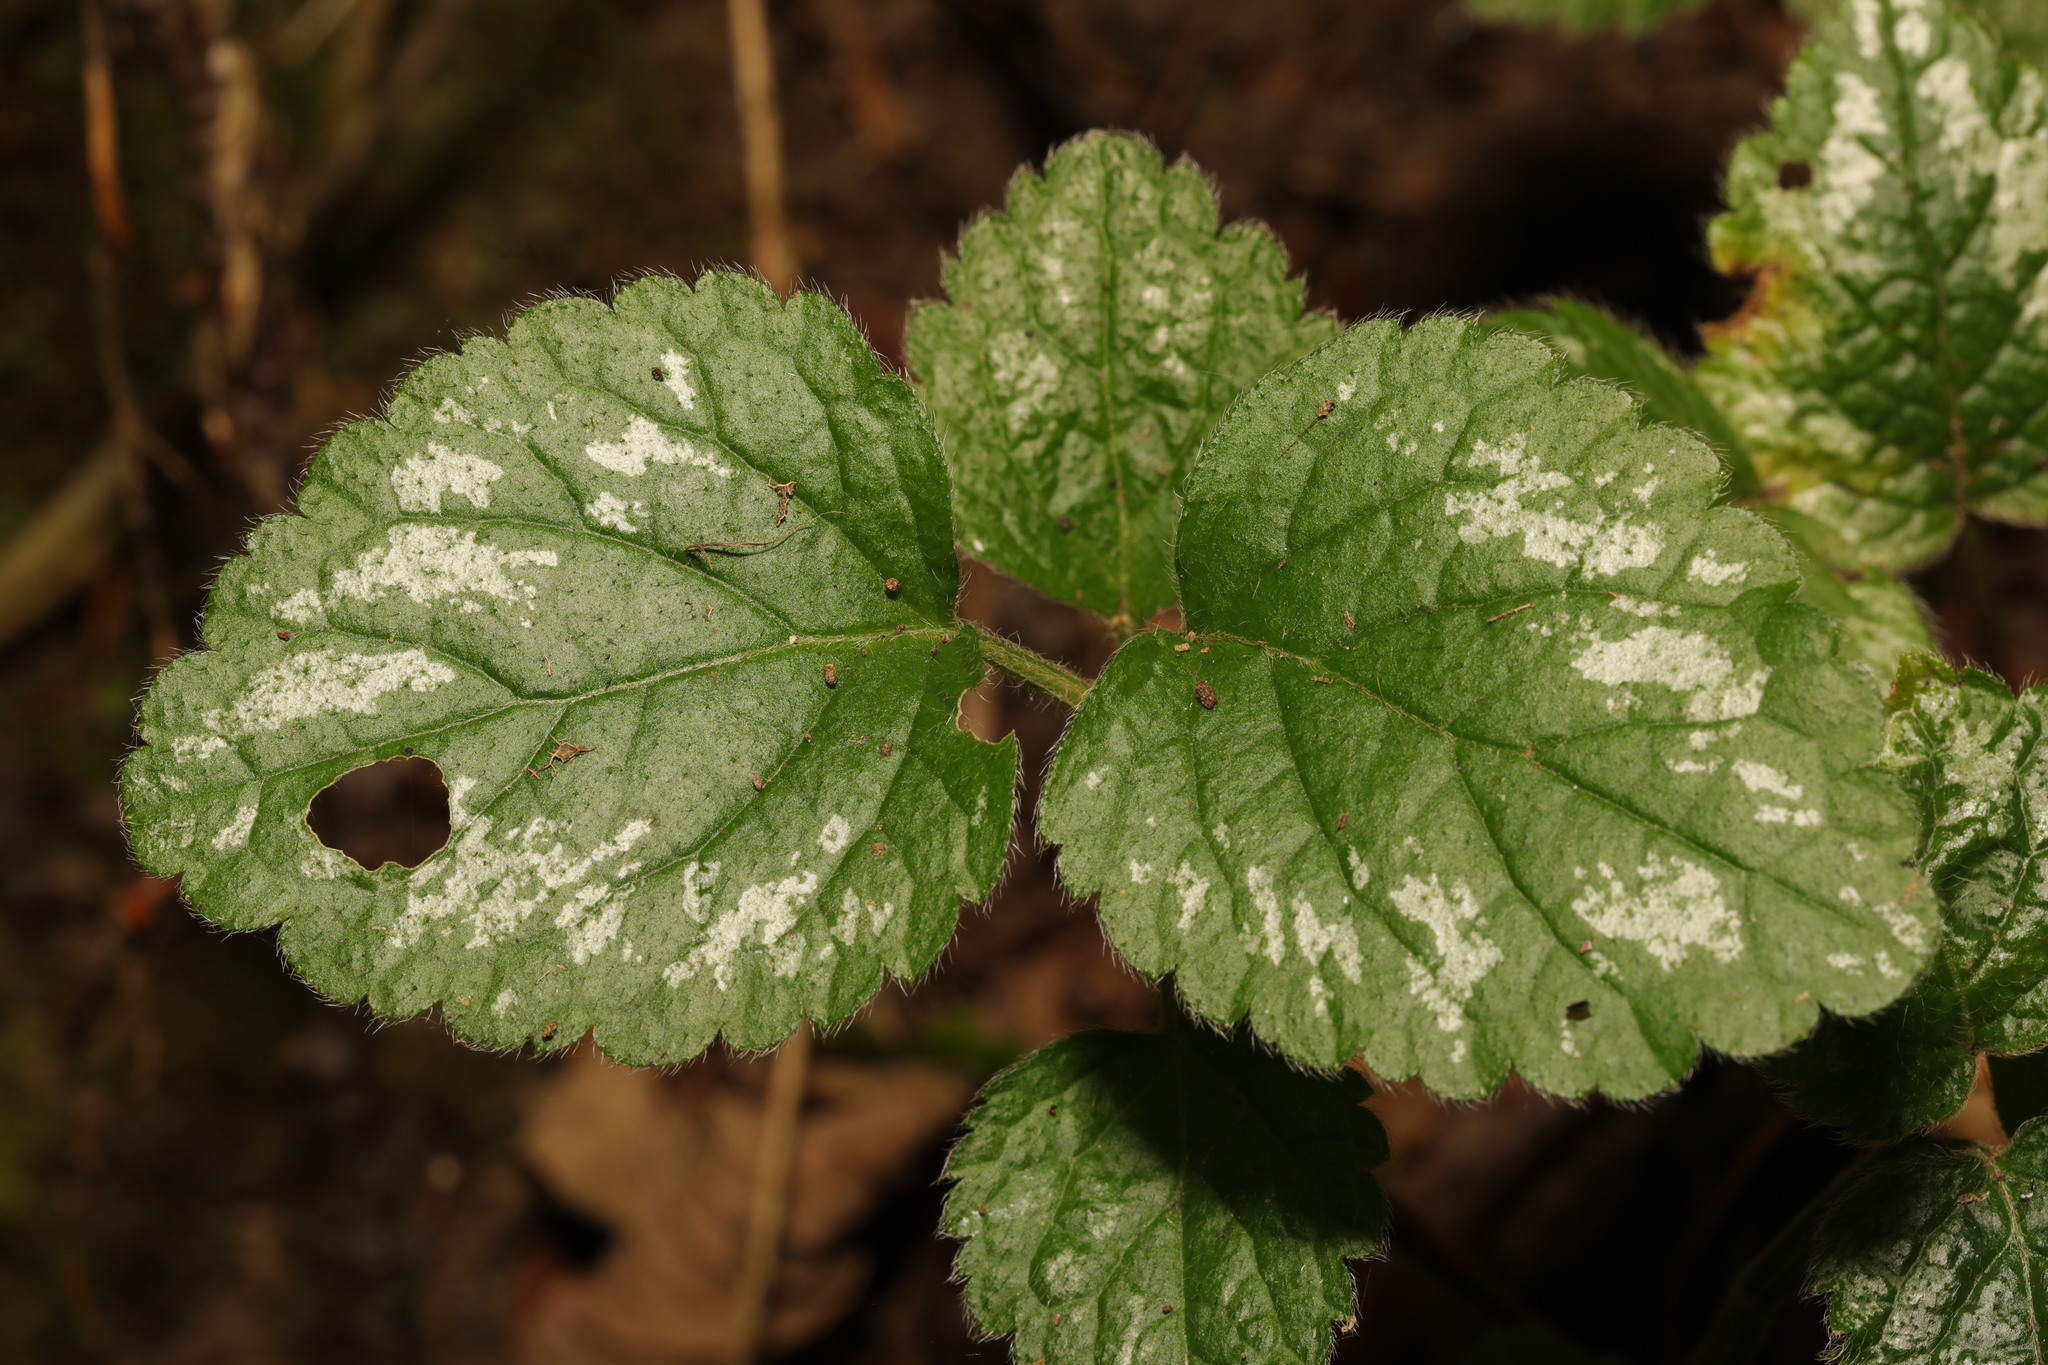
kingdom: Plantae
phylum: Tracheophyta
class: Magnoliopsida
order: Lamiales
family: Lamiaceae
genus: Lamium
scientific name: Lamium galeobdolon
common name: Yellow archangel
